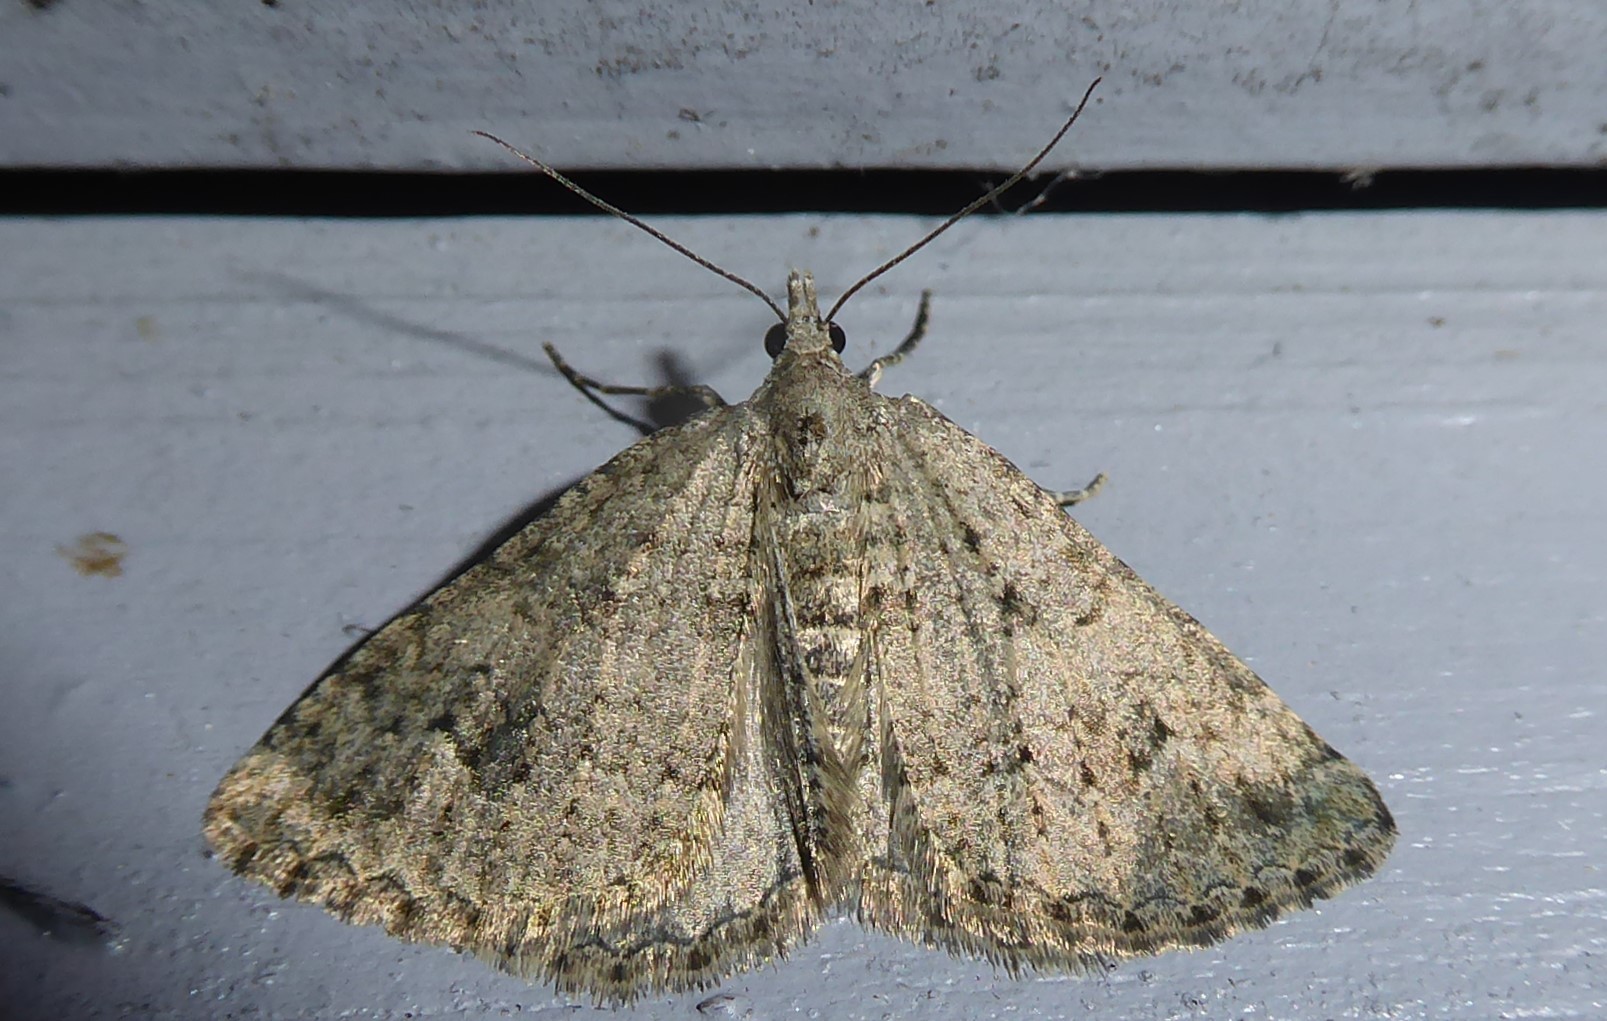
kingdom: Animalia
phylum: Arthropoda
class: Insecta
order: Lepidoptera
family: Geometridae
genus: Helastia
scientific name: Helastia corcularia
